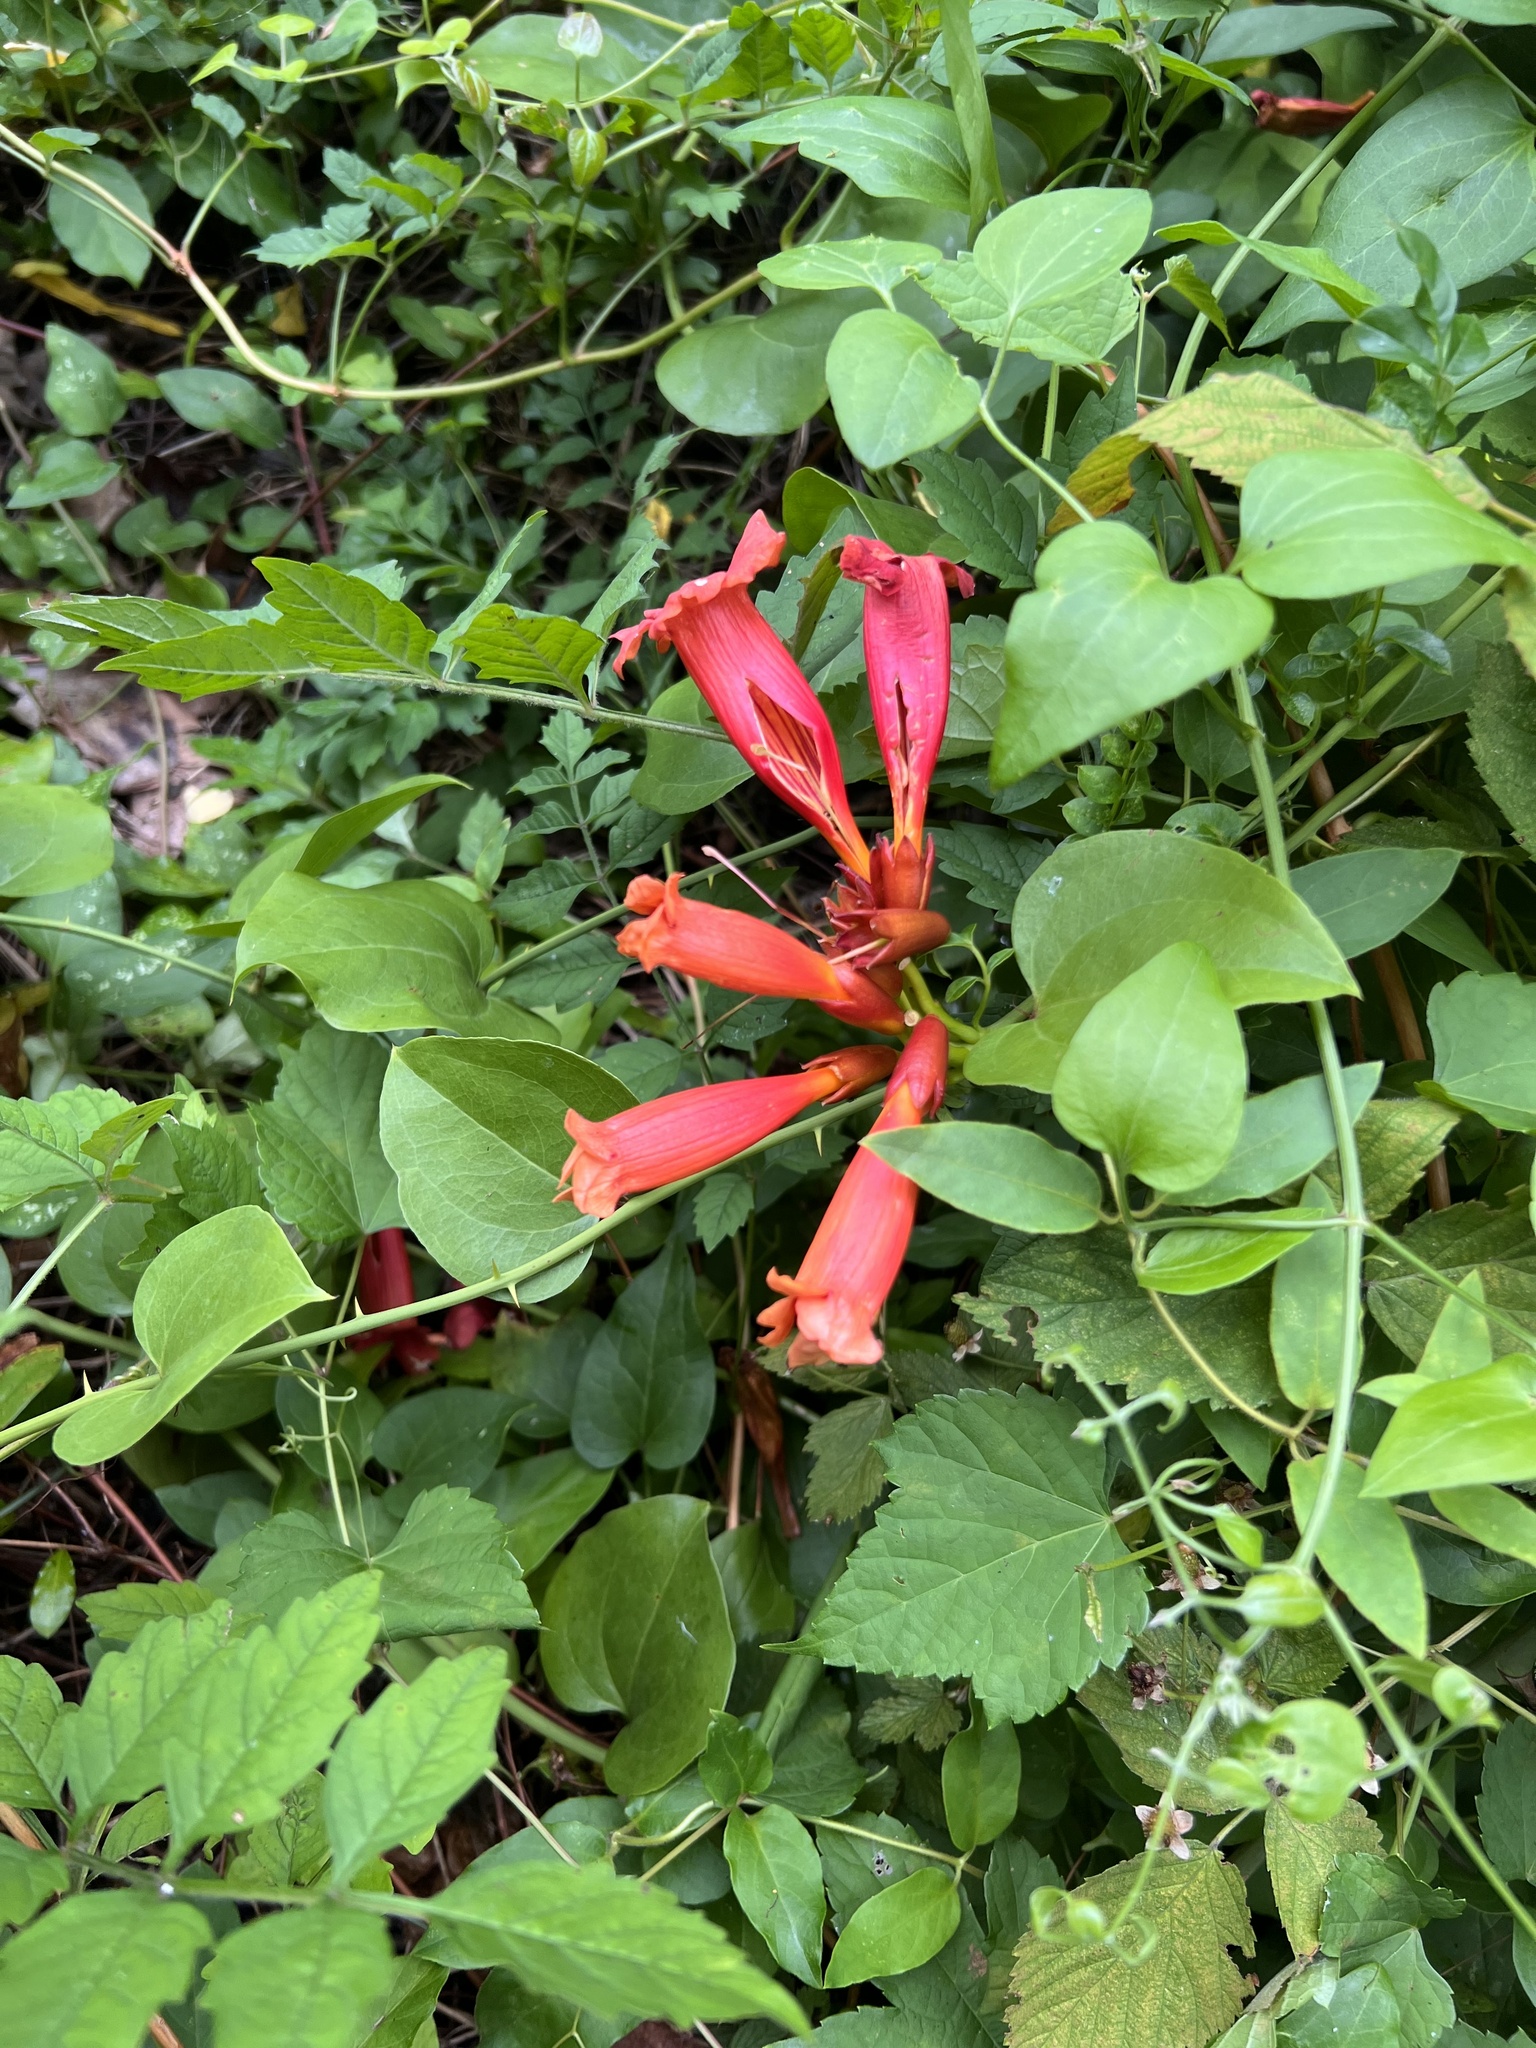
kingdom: Plantae
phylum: Tracheophyta
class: Magnoliopsida
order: Lamiales
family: Bignoniaceae
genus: Campsis
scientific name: Campsis radicans
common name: Trumpet-creeper
